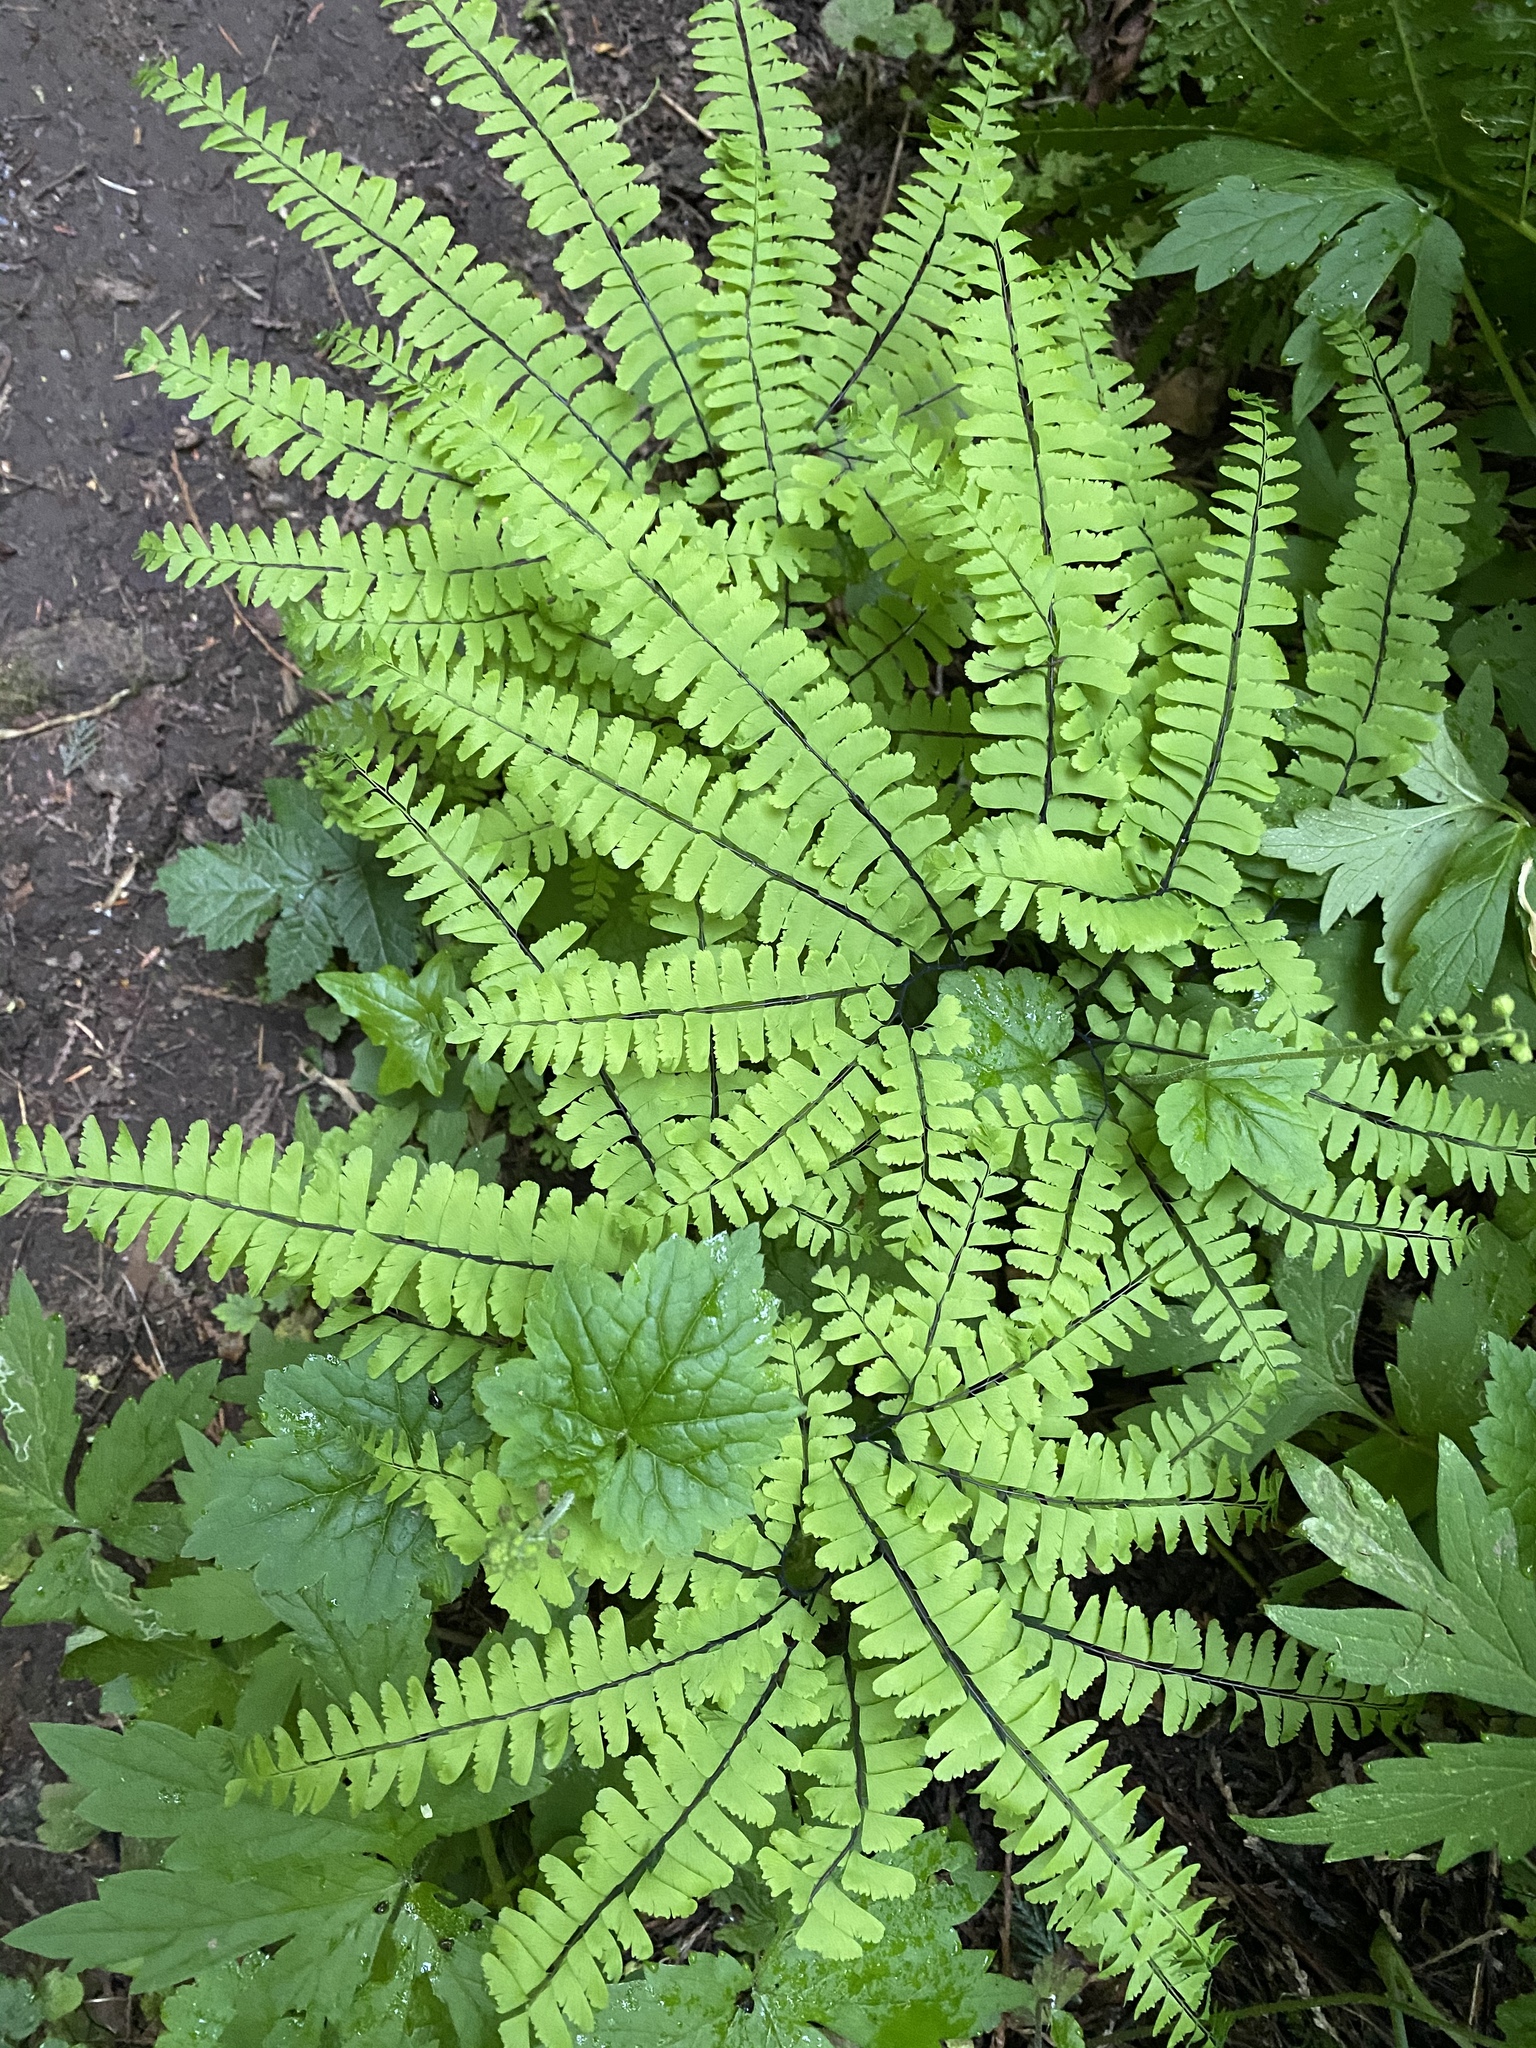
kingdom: Plantae
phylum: Tracheophyta
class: Polypodiopsida
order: Polypodiales
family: Pteridaceae
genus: Adiantum
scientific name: Adiantum aleuticum
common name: Aleutian maidenhair fern
